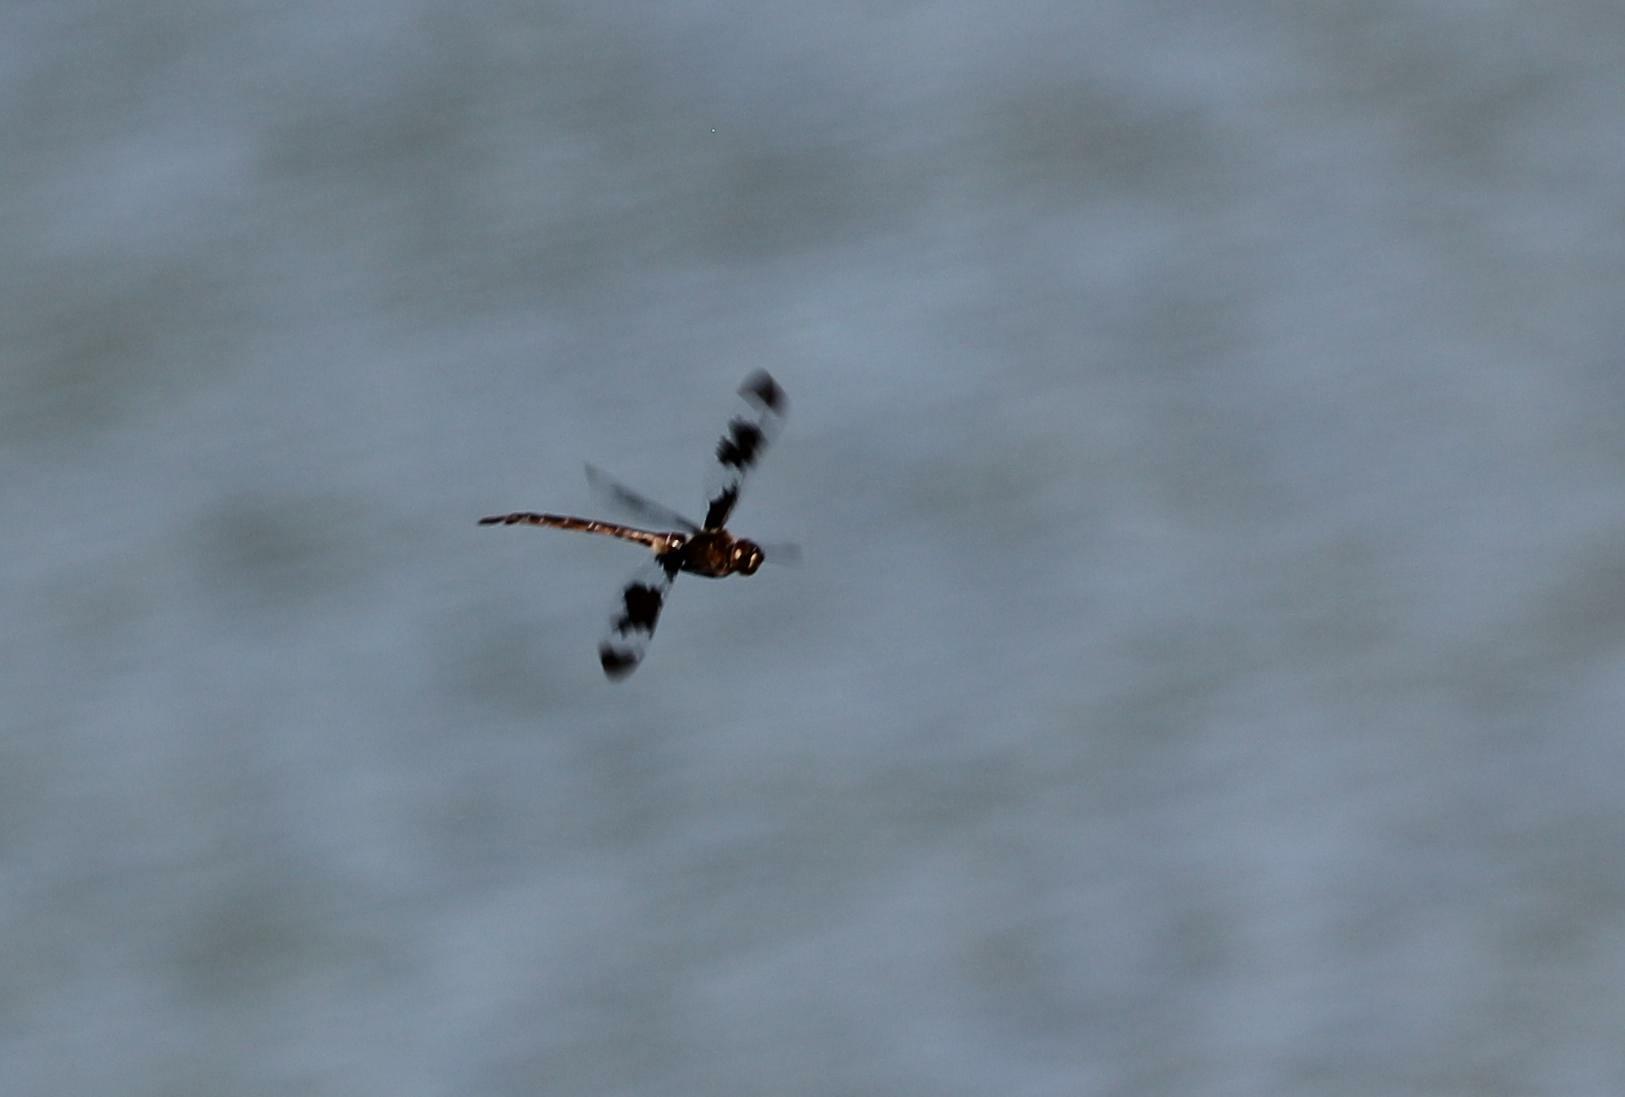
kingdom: Animalia
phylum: Arthropoda
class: Insecta
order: Odonata
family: Corduliidae
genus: Epitheca
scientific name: Epitheca princeps
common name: Prince baskettail
